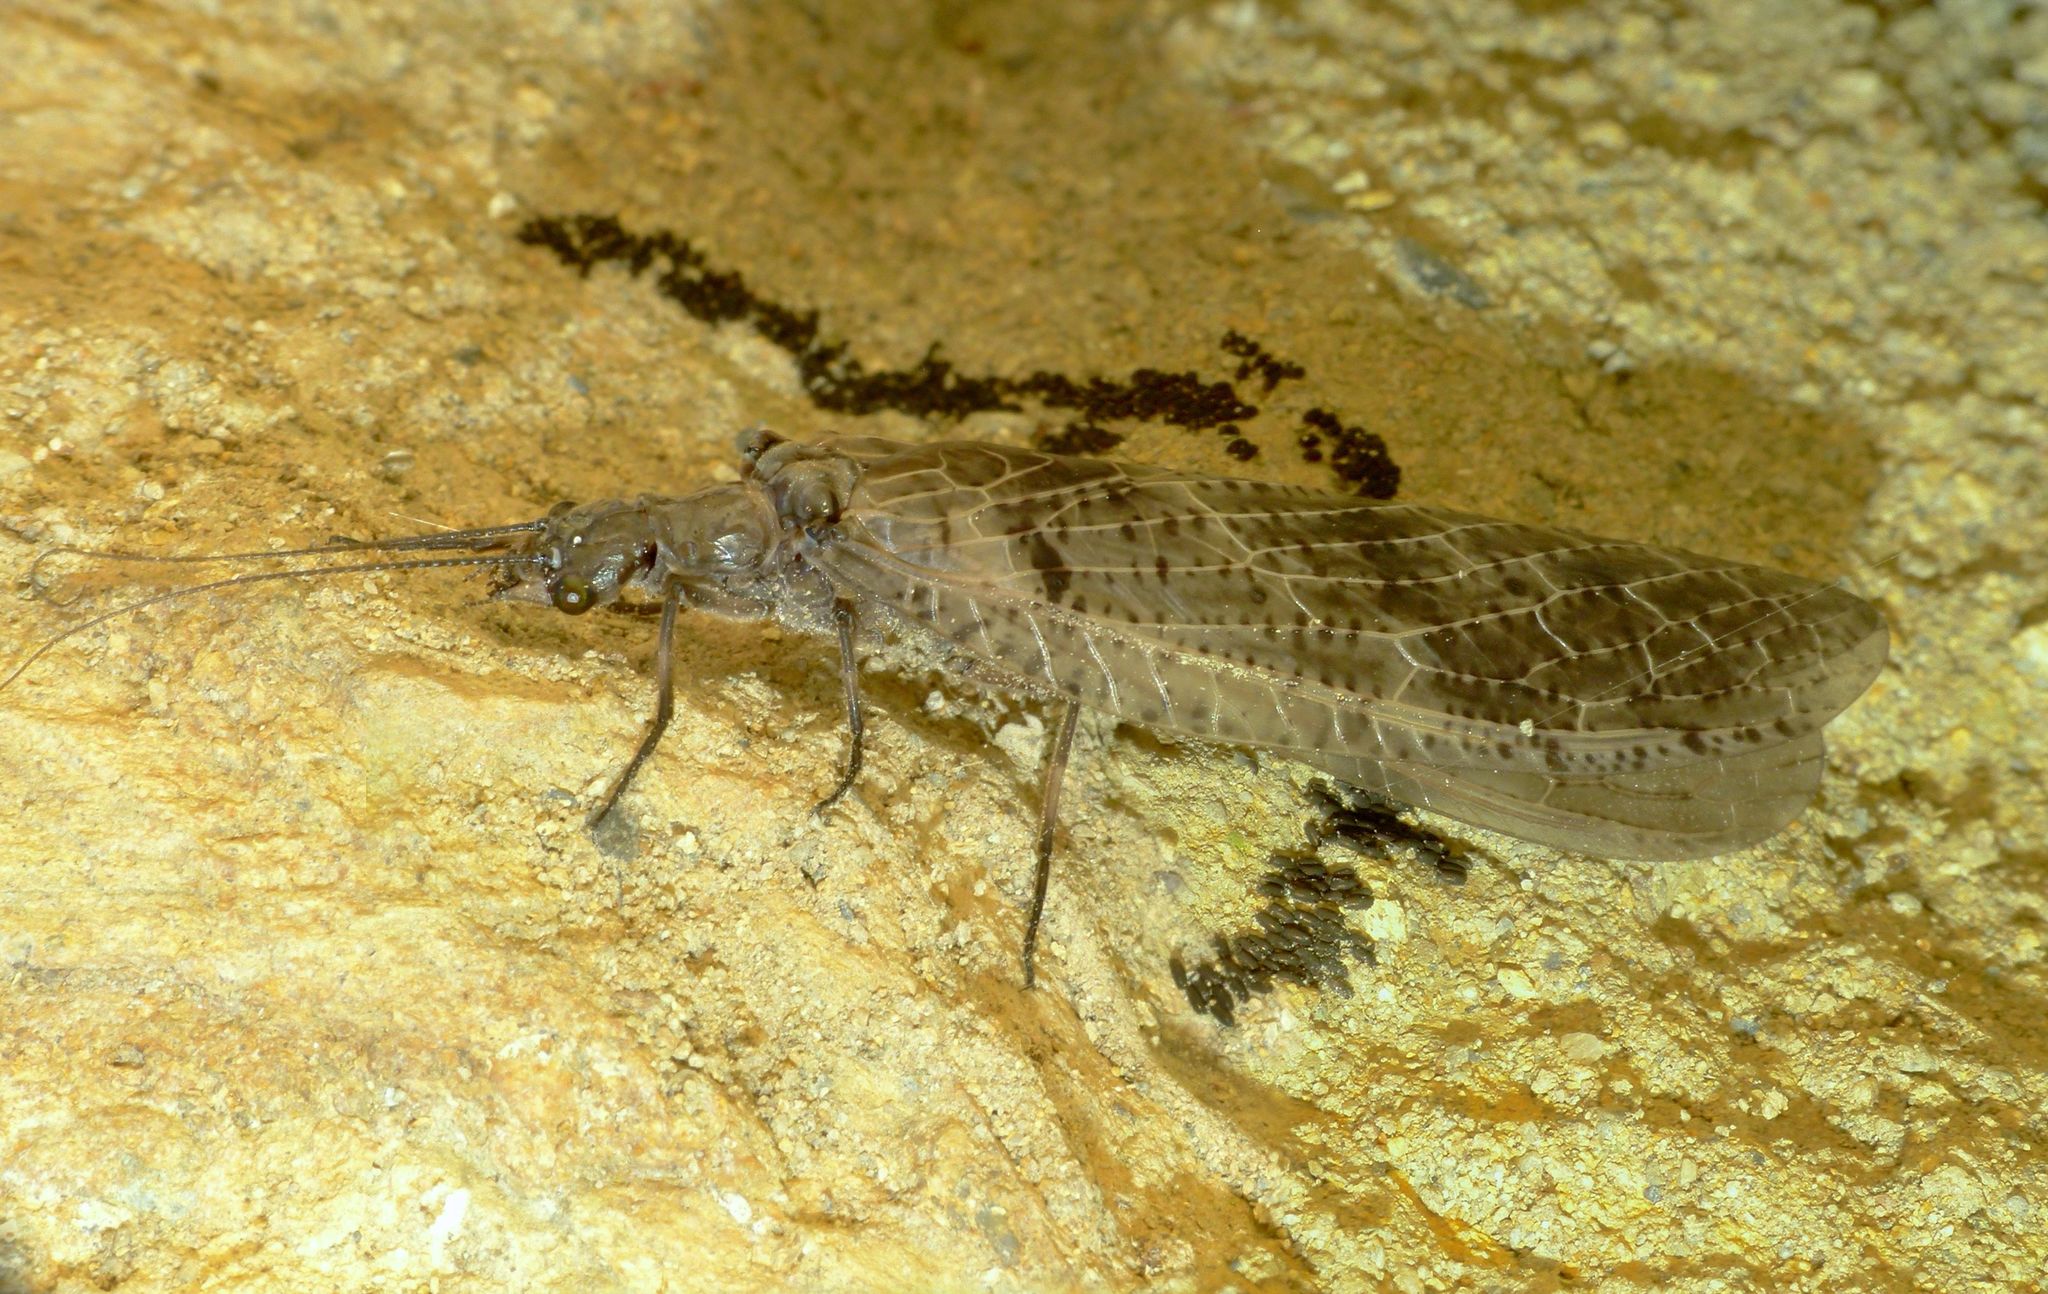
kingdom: Animalia
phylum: Arthropoda
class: Insecta
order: Megaloptera
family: Corydalidae
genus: Archichauliodes
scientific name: Archichauliodes diversus
